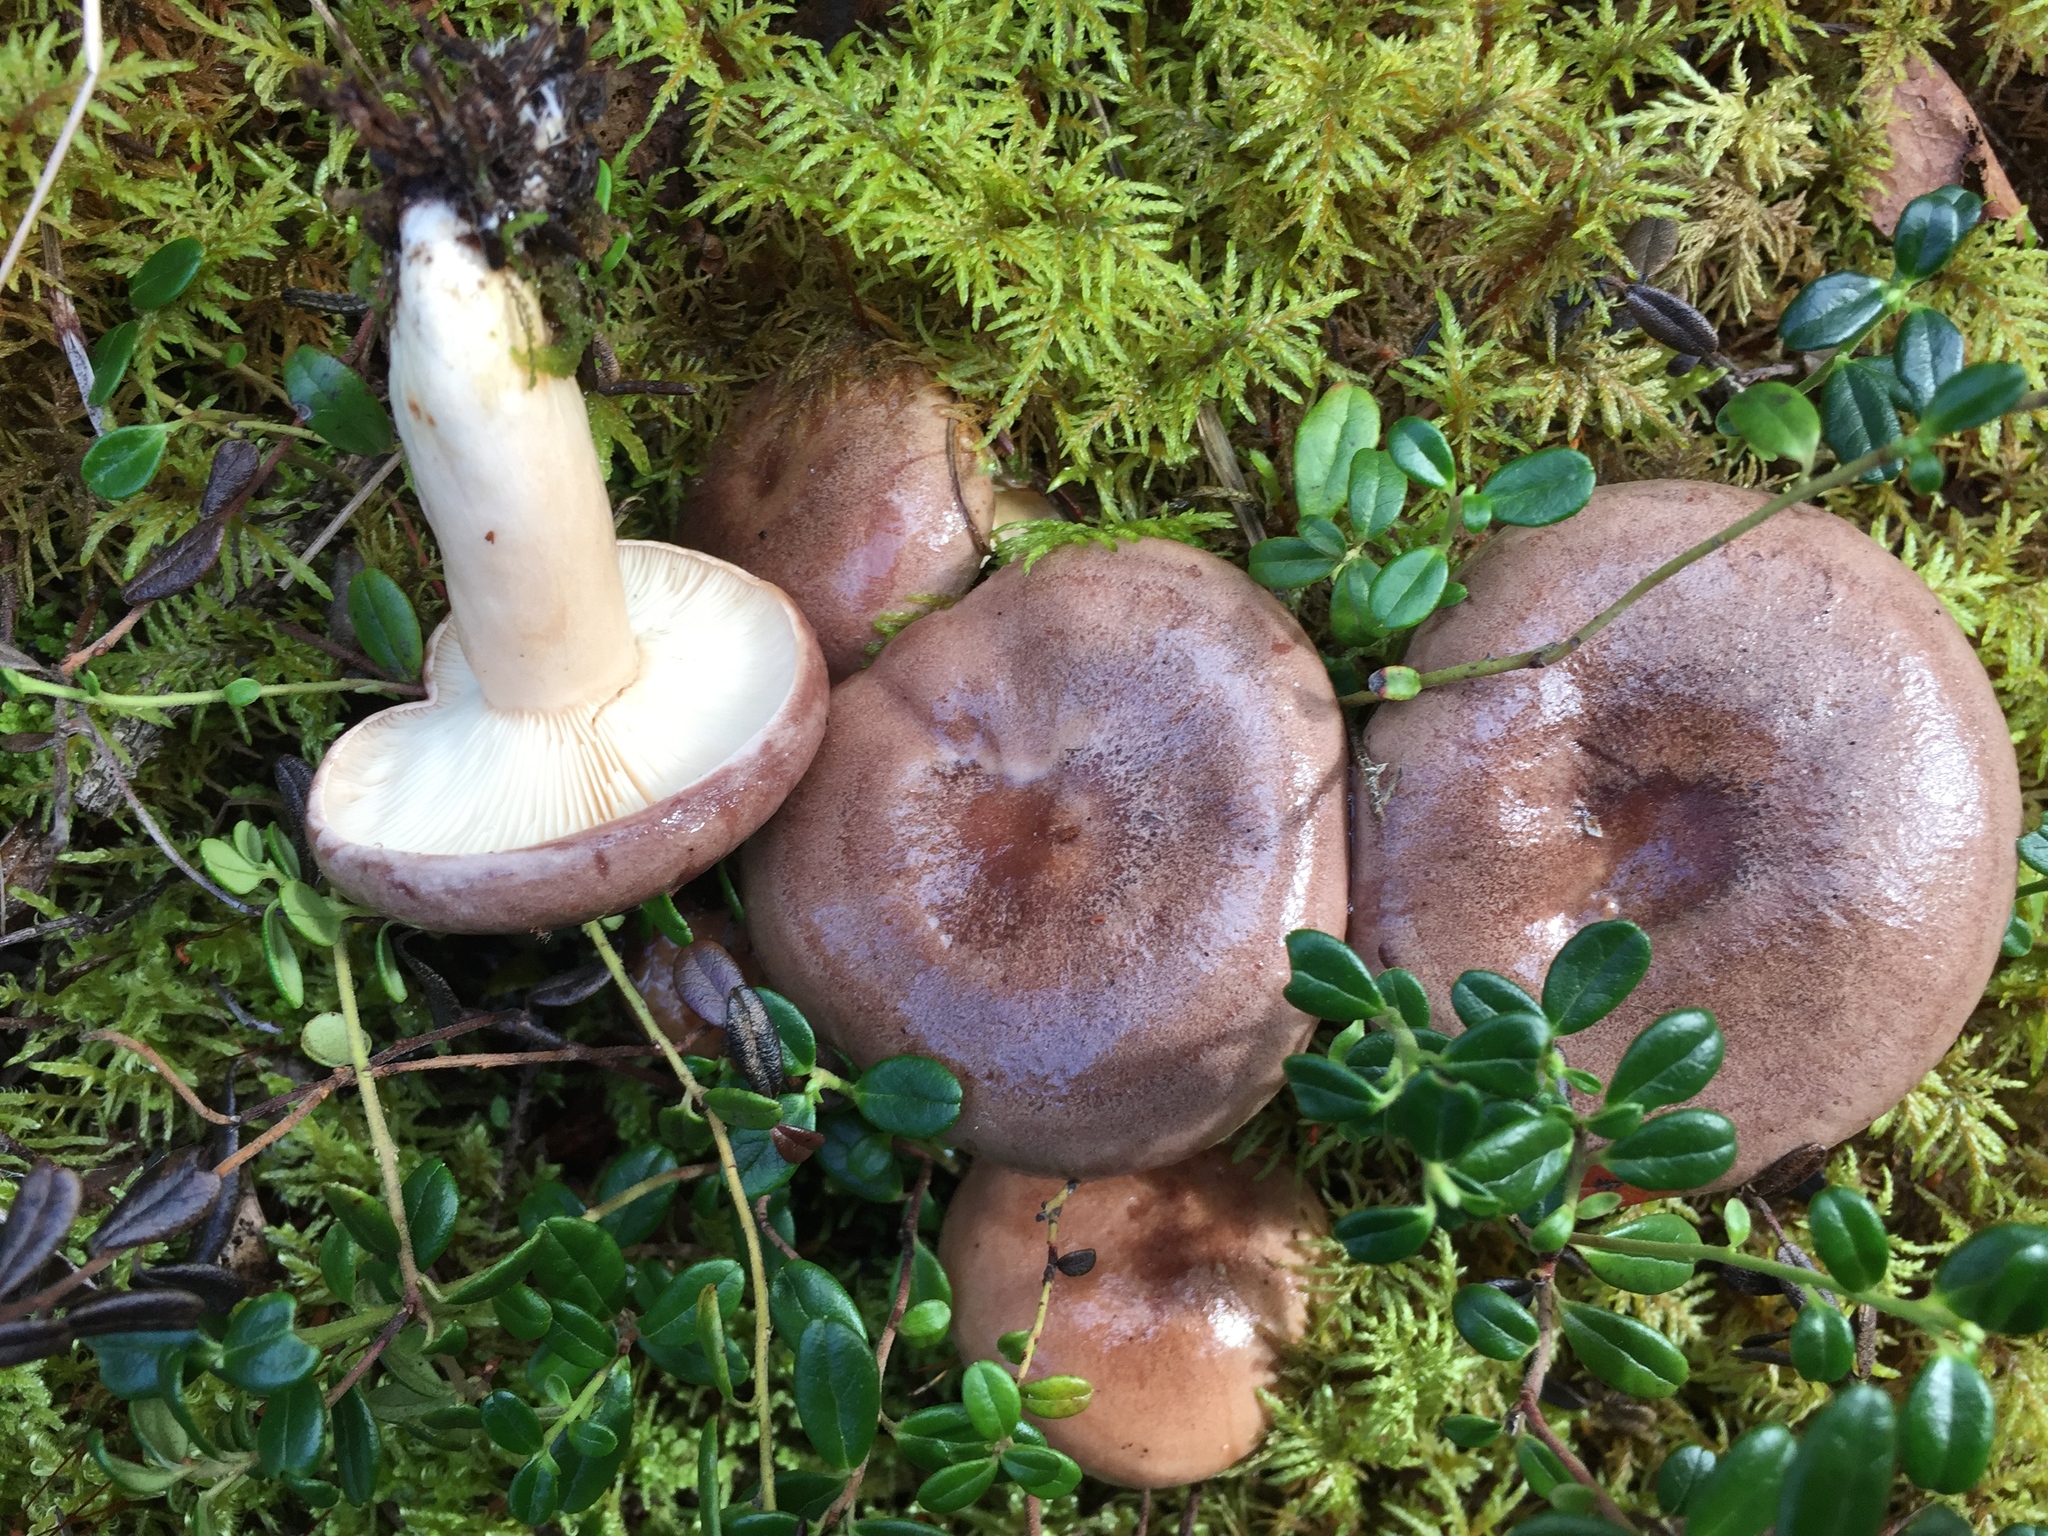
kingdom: Fungi
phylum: Basidiomycota
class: Agaricomycetes
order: Russulales
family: Russulaceae
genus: Lactarius
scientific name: Lactarius circellatus
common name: Circled milkcap
